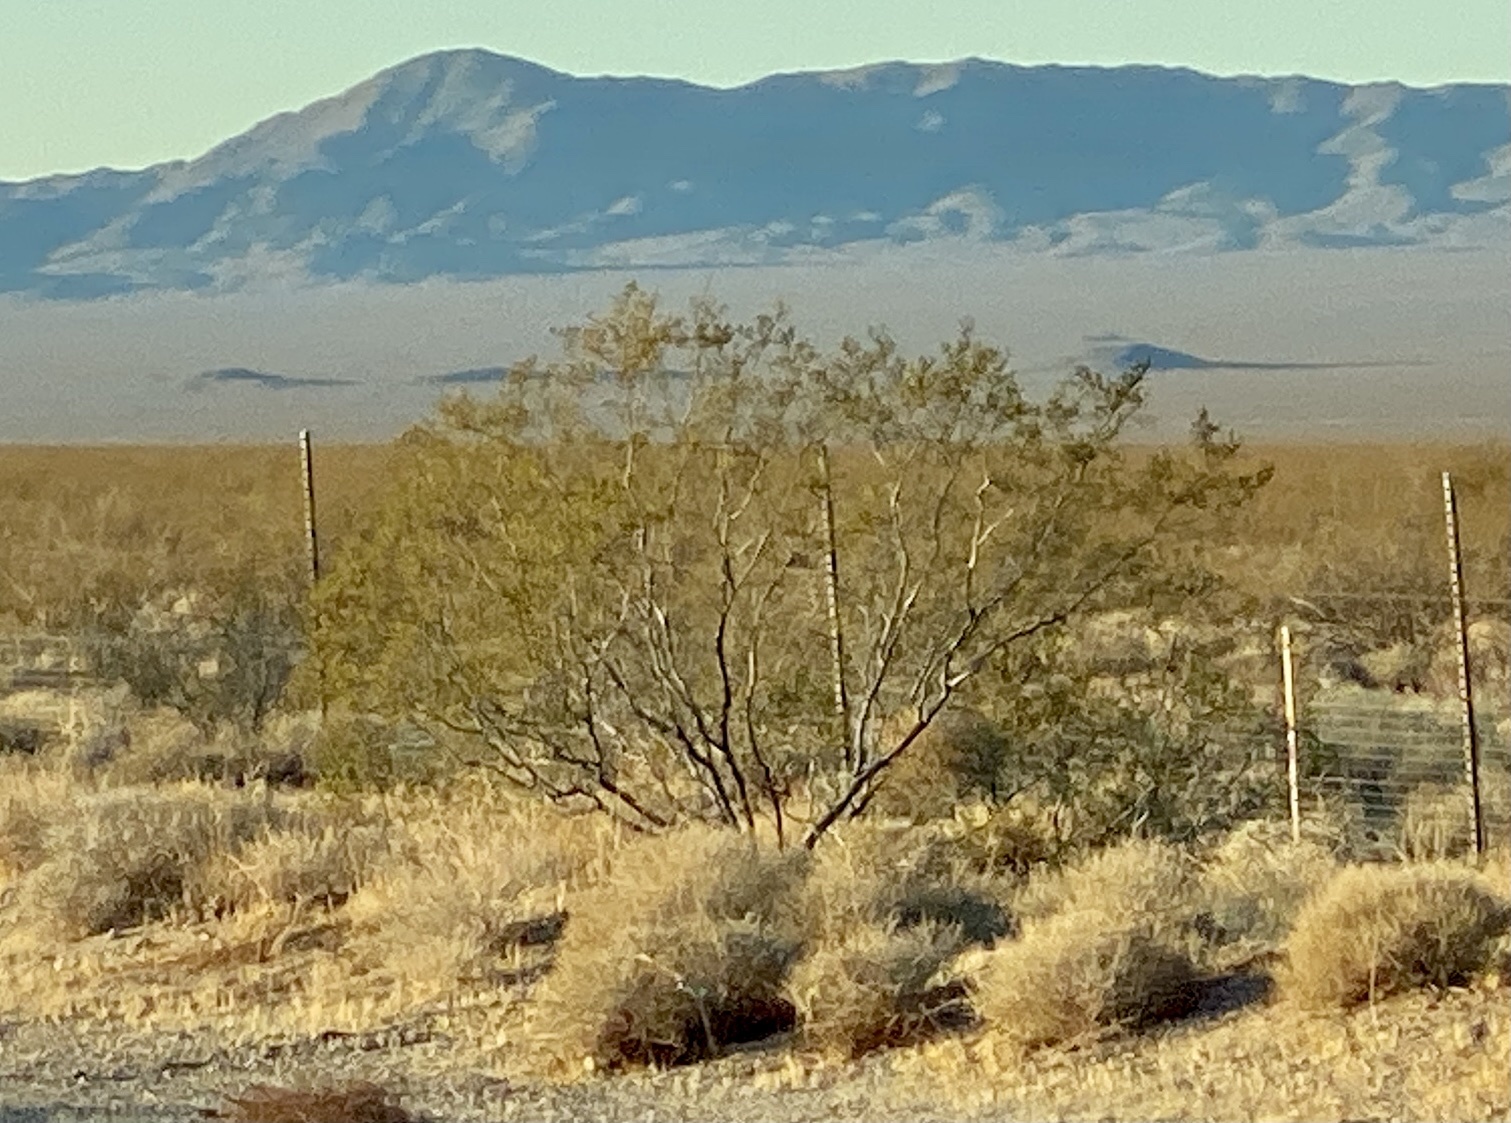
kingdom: Plantae
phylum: Tracheophyta
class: Magnoliopsida
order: Zygophyllales
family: Zygophyllaceae
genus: Larrea
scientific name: Larrea tridentata
